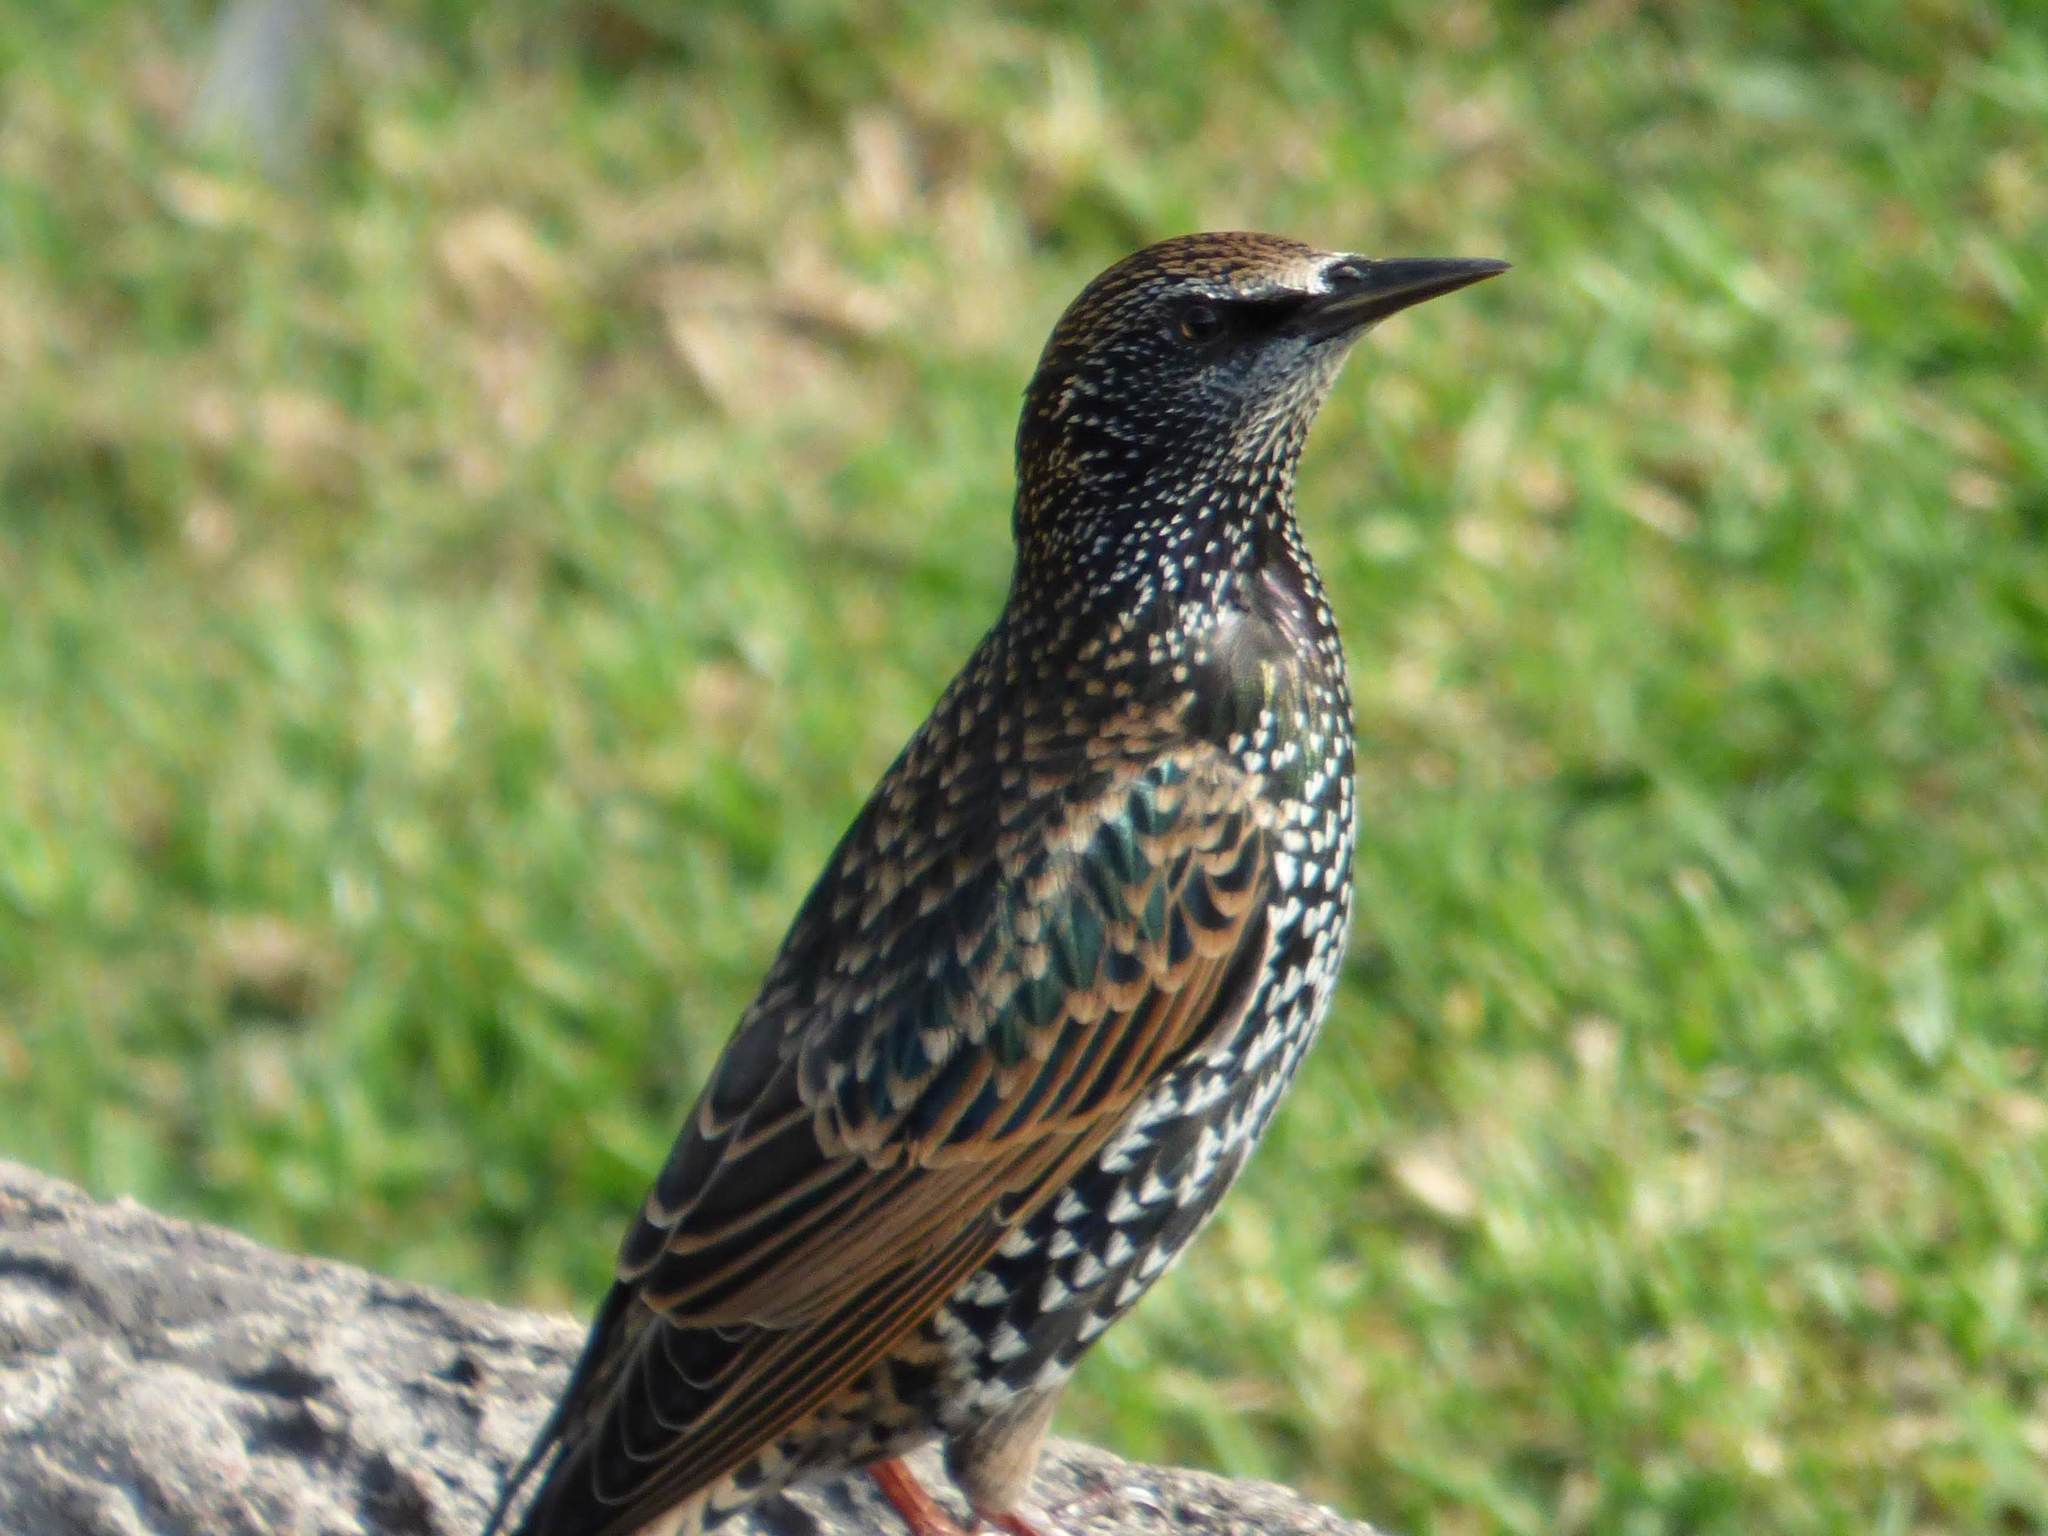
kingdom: Animalia
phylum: Chordata
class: Aves
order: Passeriformes
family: Sturnidae
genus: Sturnus
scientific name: Sturnus vulgaris
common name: Common starling
